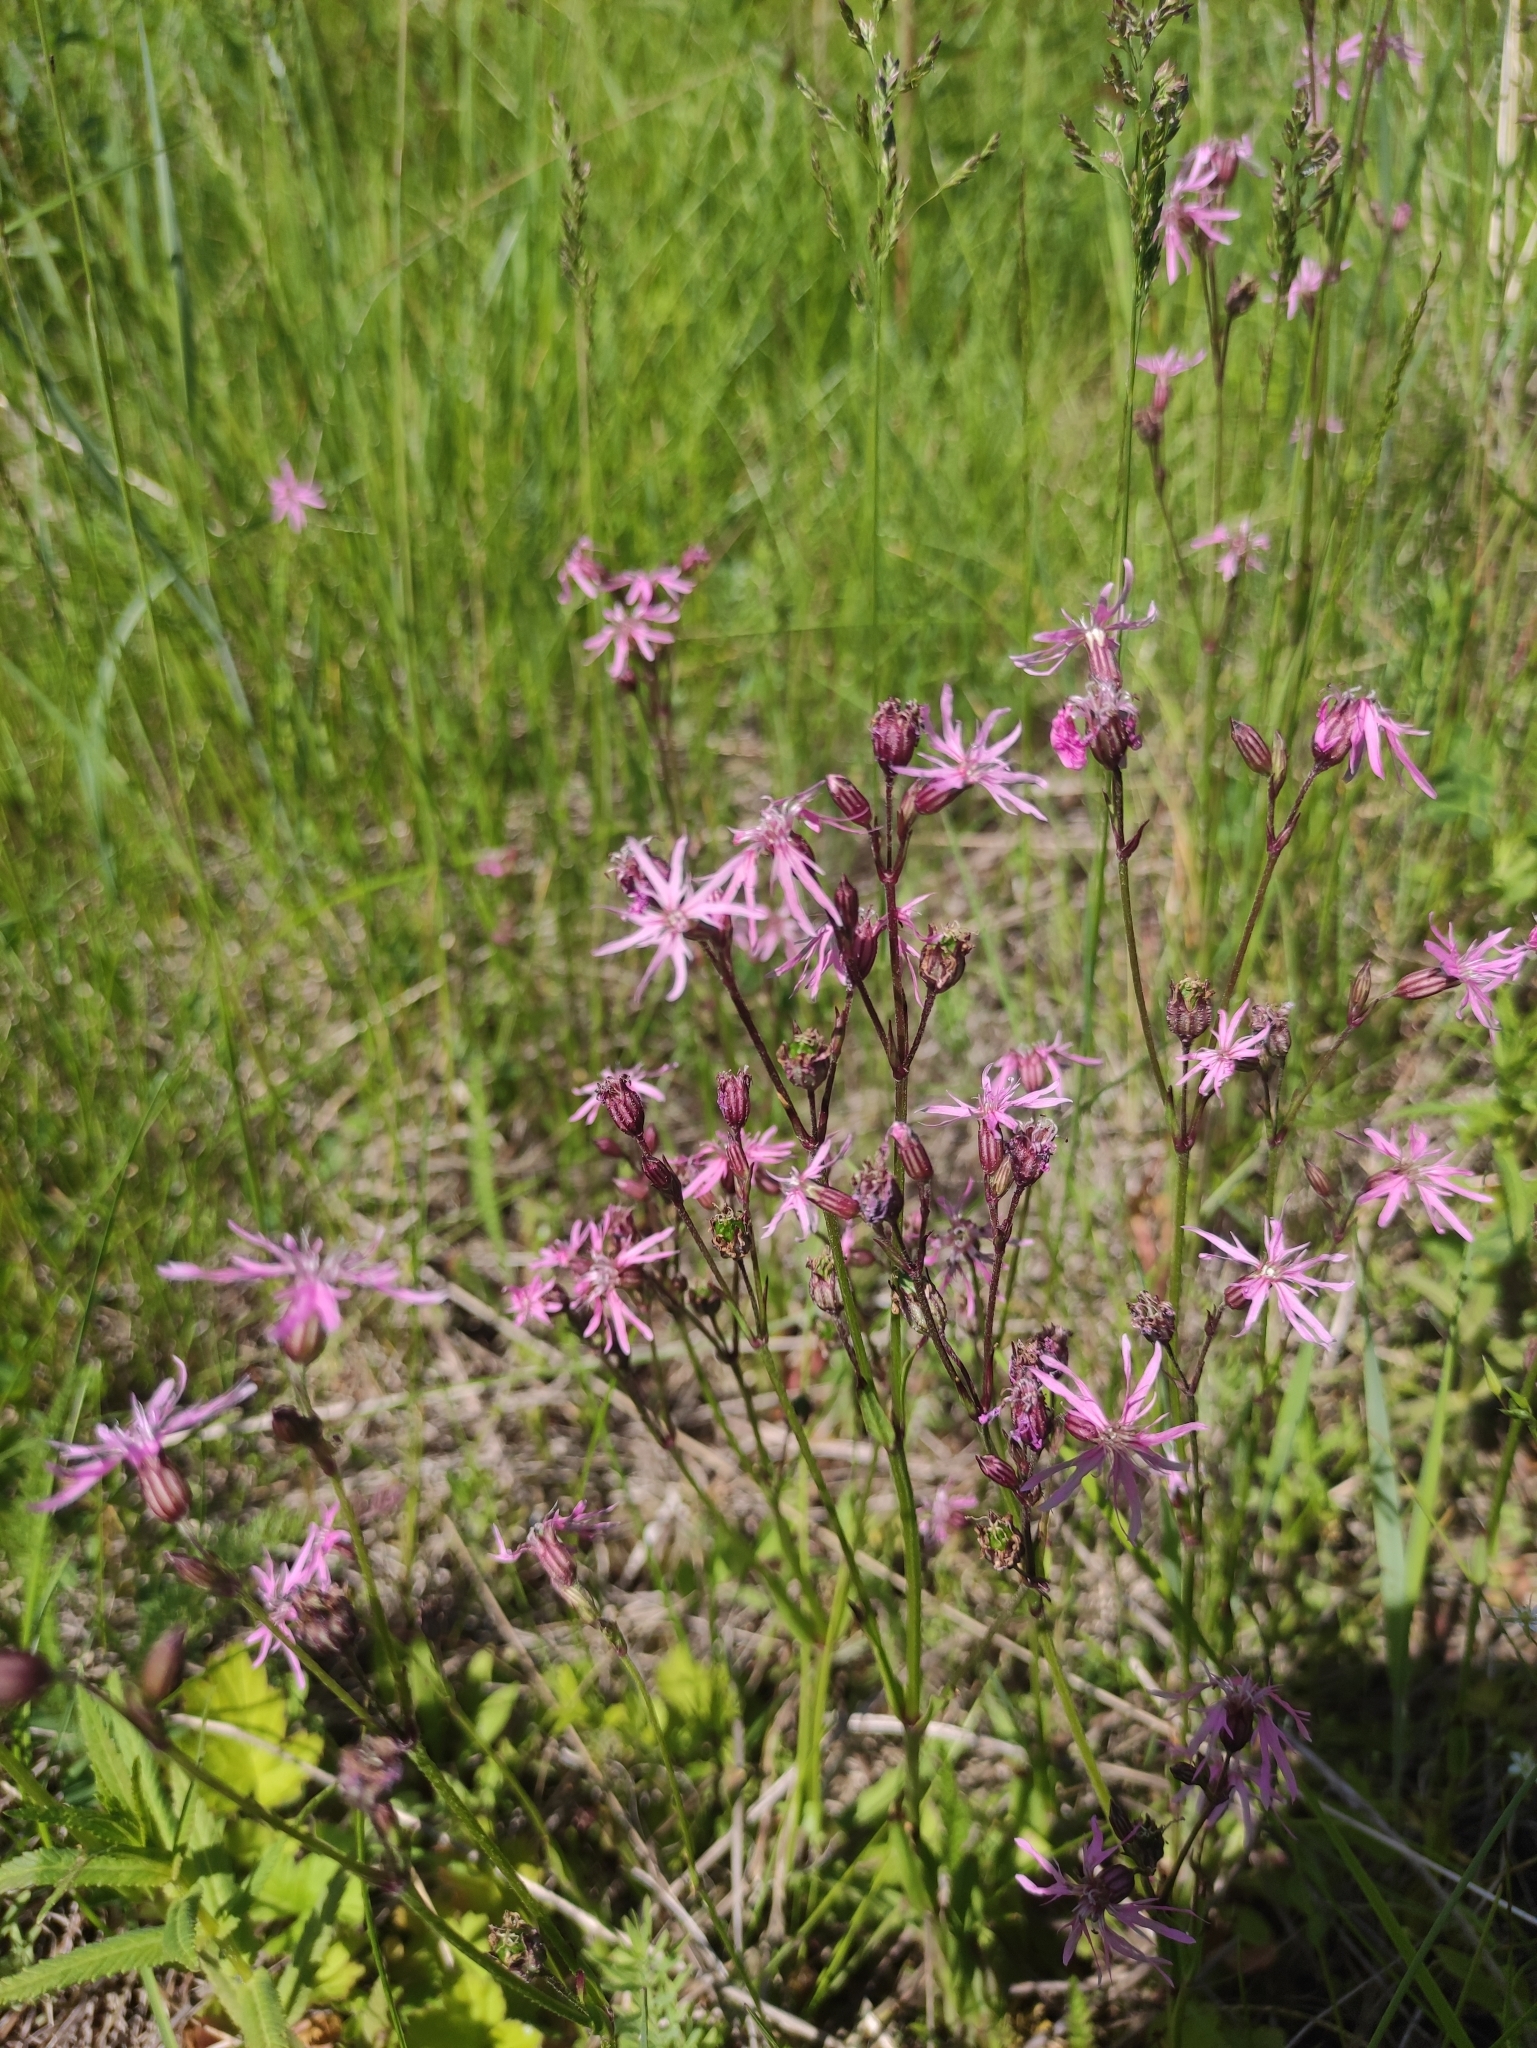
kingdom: Plantae
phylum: Tracheophyta
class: Magnoliopsida
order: Caryophyllales
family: Caryophyllaceae
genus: Silene
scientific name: Silene flos-cuculi
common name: Ragged-robin
